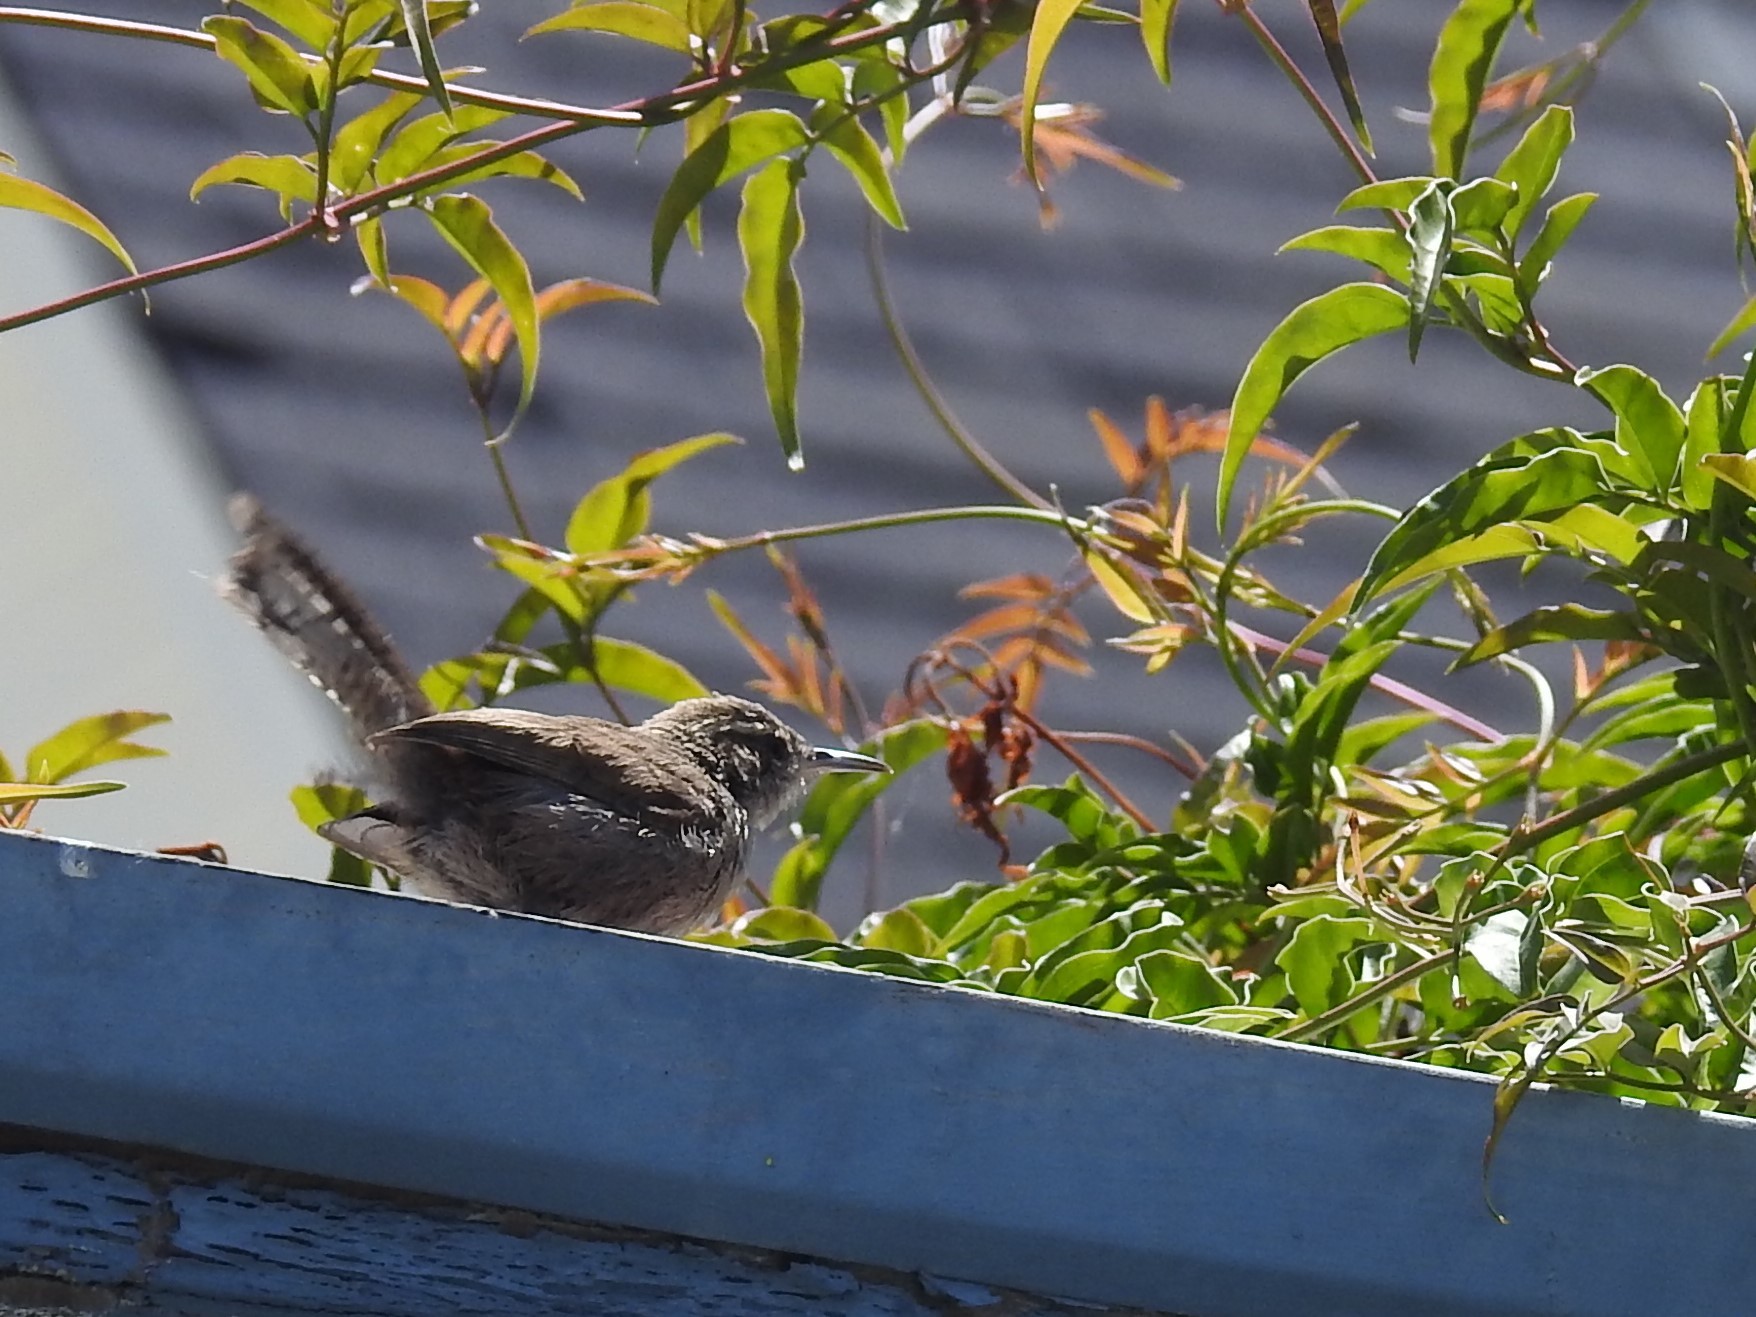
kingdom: Animalia
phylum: Chordata
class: Aves
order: Passeriformes
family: Troglodytidae
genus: Thryomanes
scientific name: Thryomanes bewickii
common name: Bewick's wren
